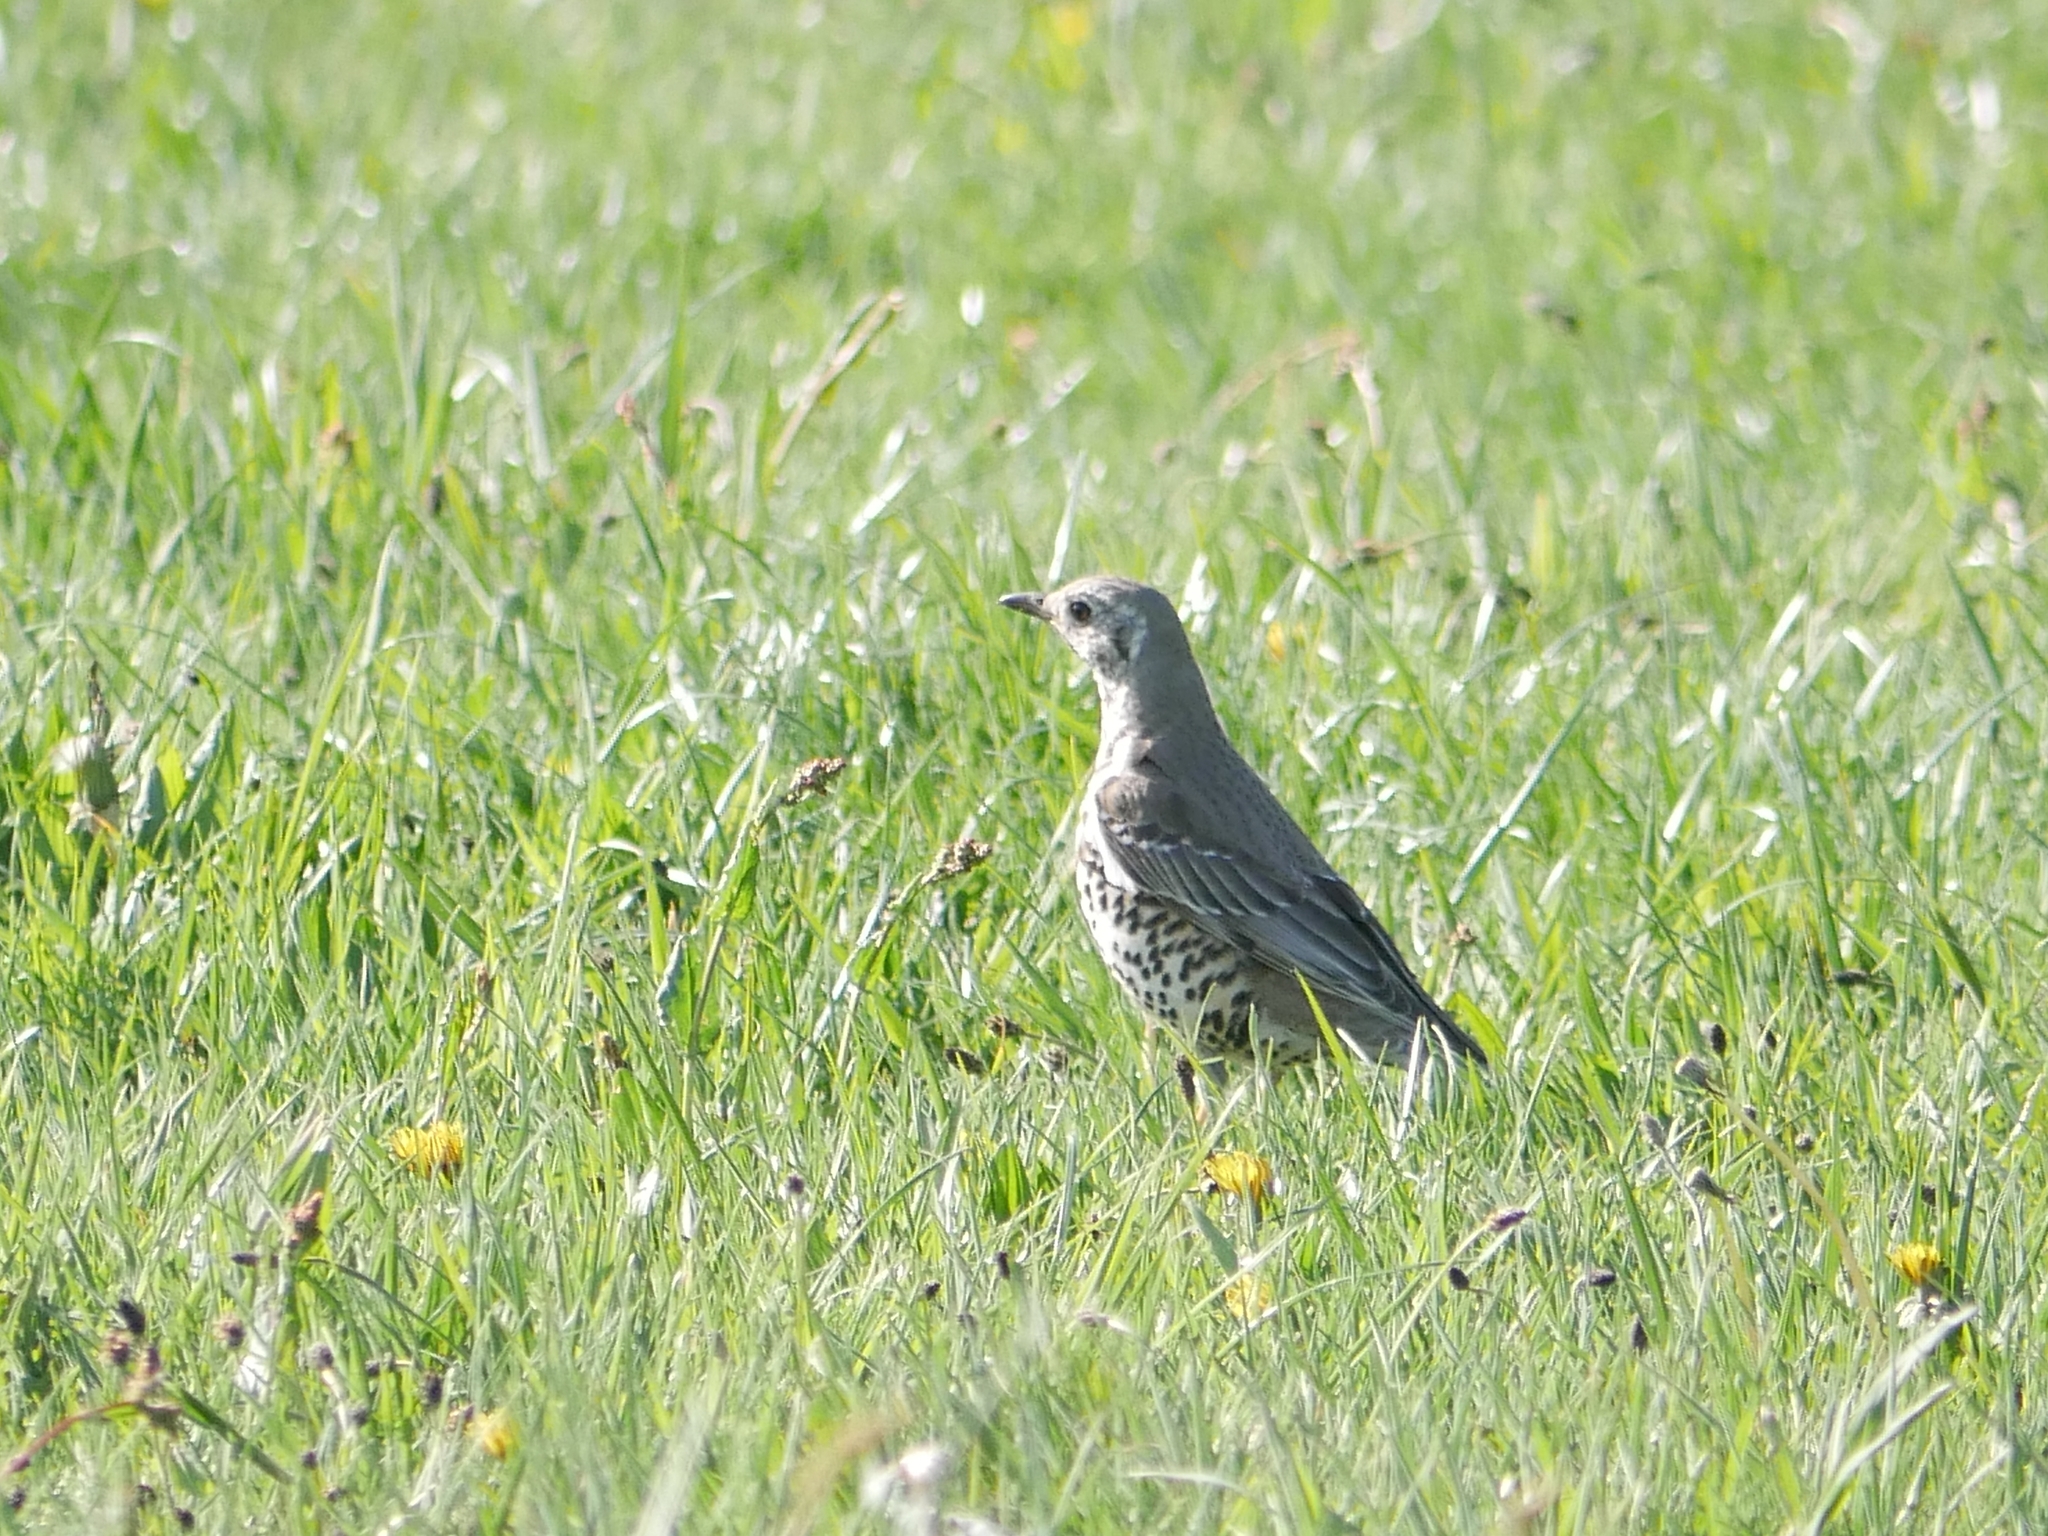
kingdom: Animalia
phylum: Chordata
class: Aves
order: Passeriformes
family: Turdidae
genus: Turdus
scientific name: Turdus viscivorus
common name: Mistle thrush
